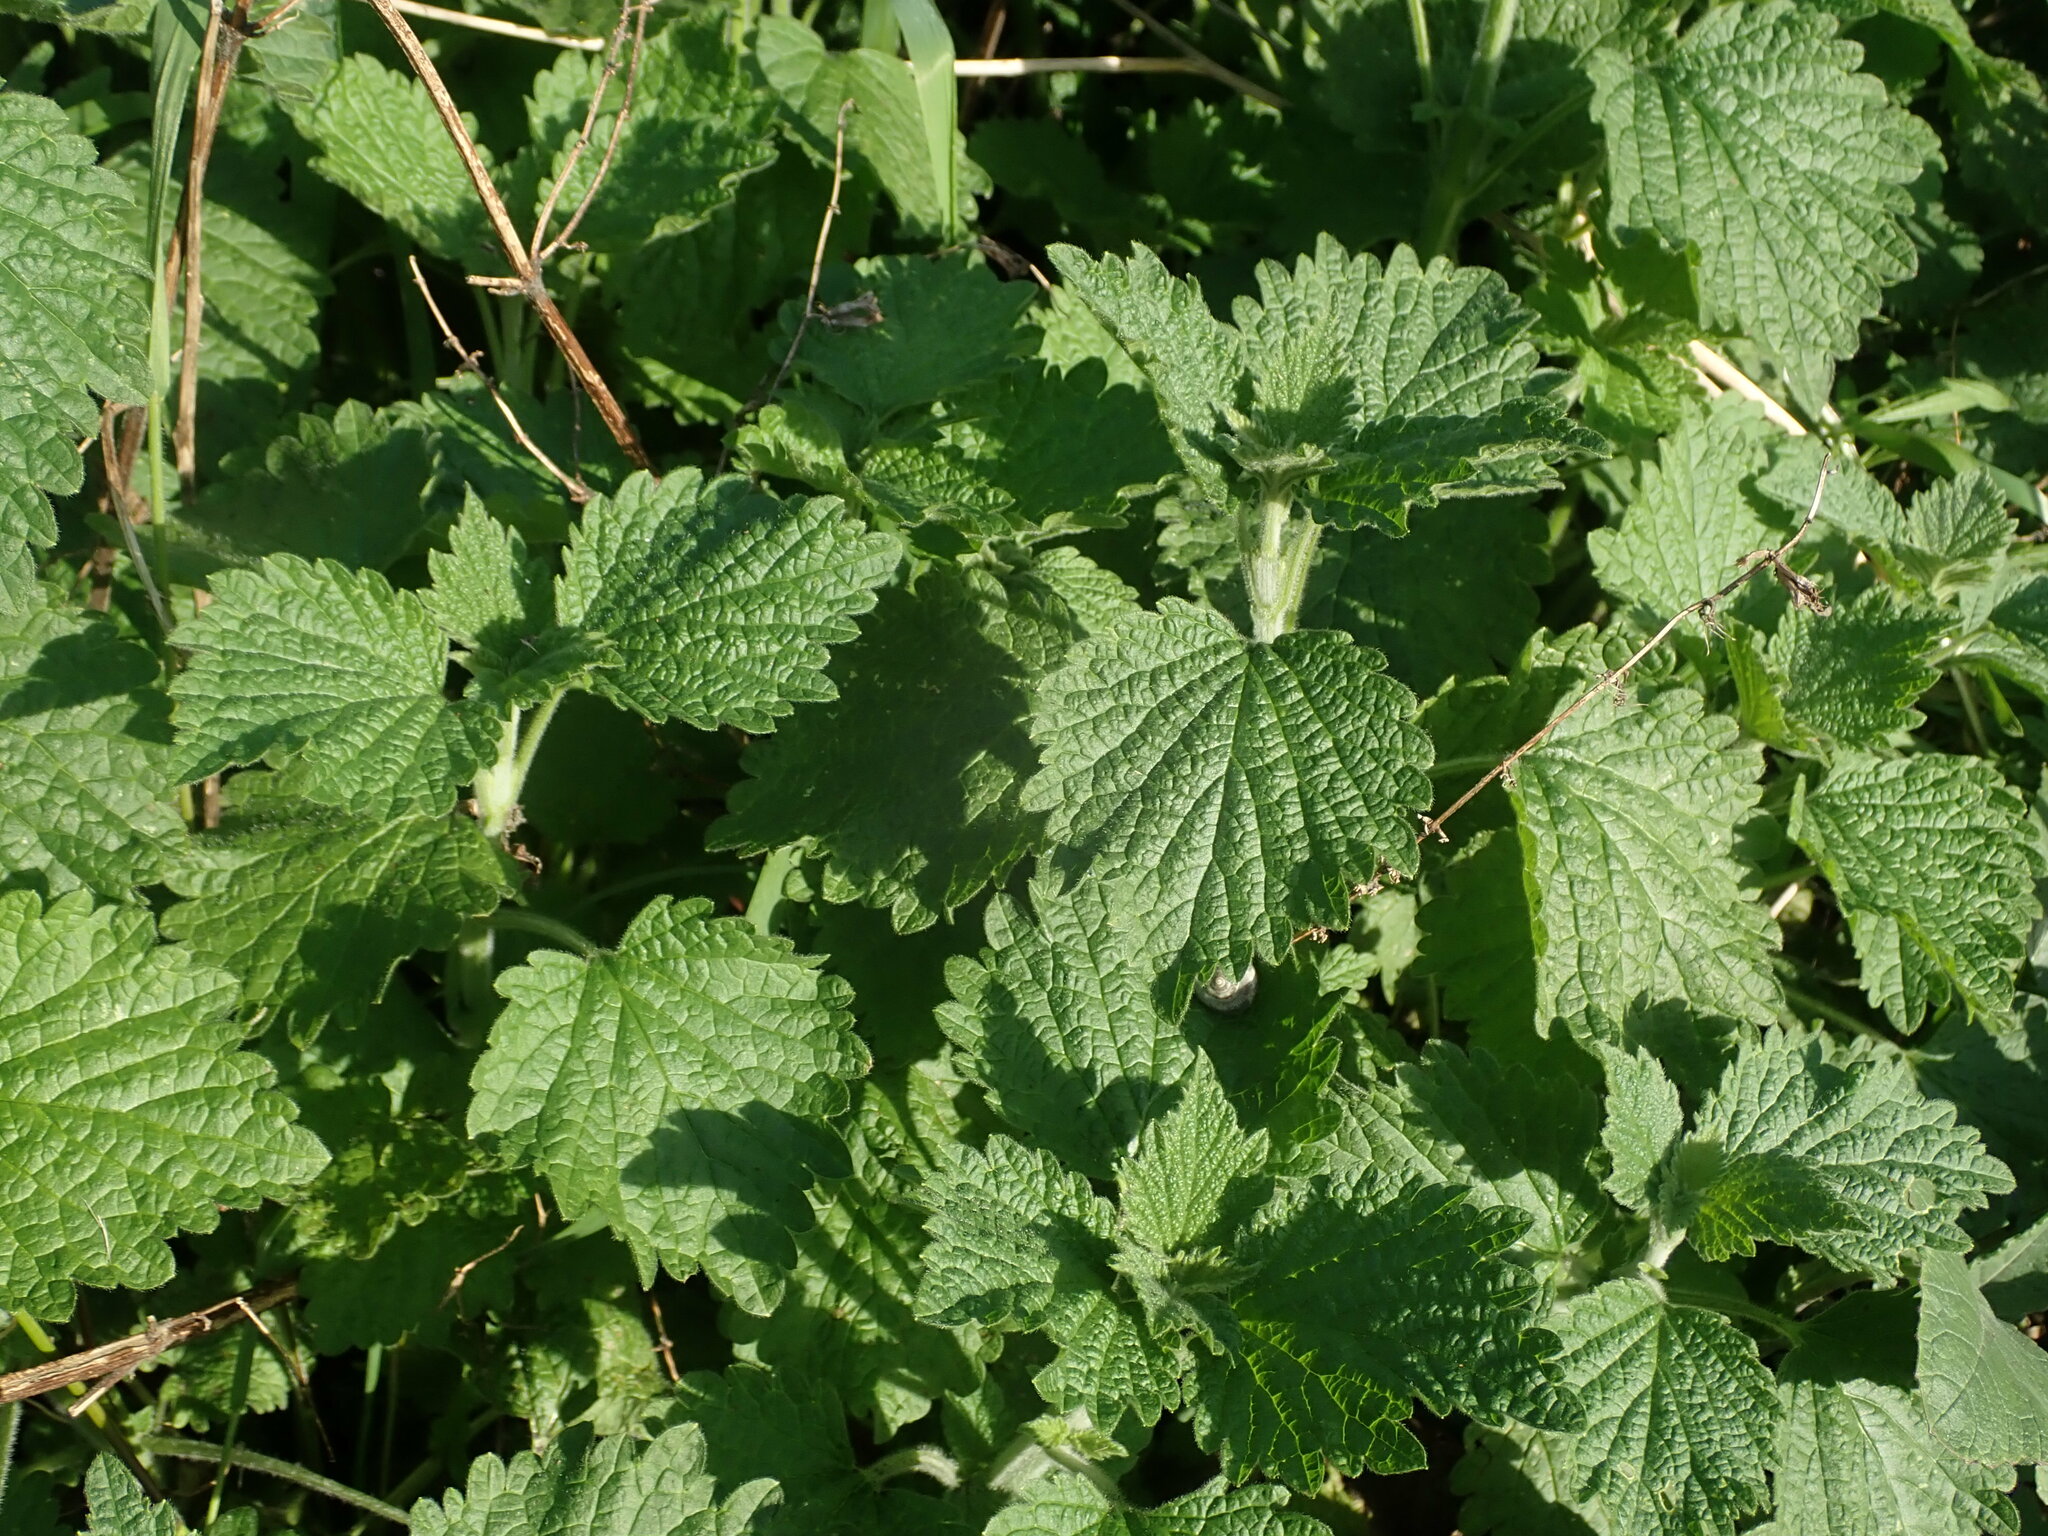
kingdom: Plantae
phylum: Tracheophyta
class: Magnoliopsida
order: Lamiales
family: Lamiaceae
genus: Ballota
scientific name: Ballota nigra
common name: Black horehound
